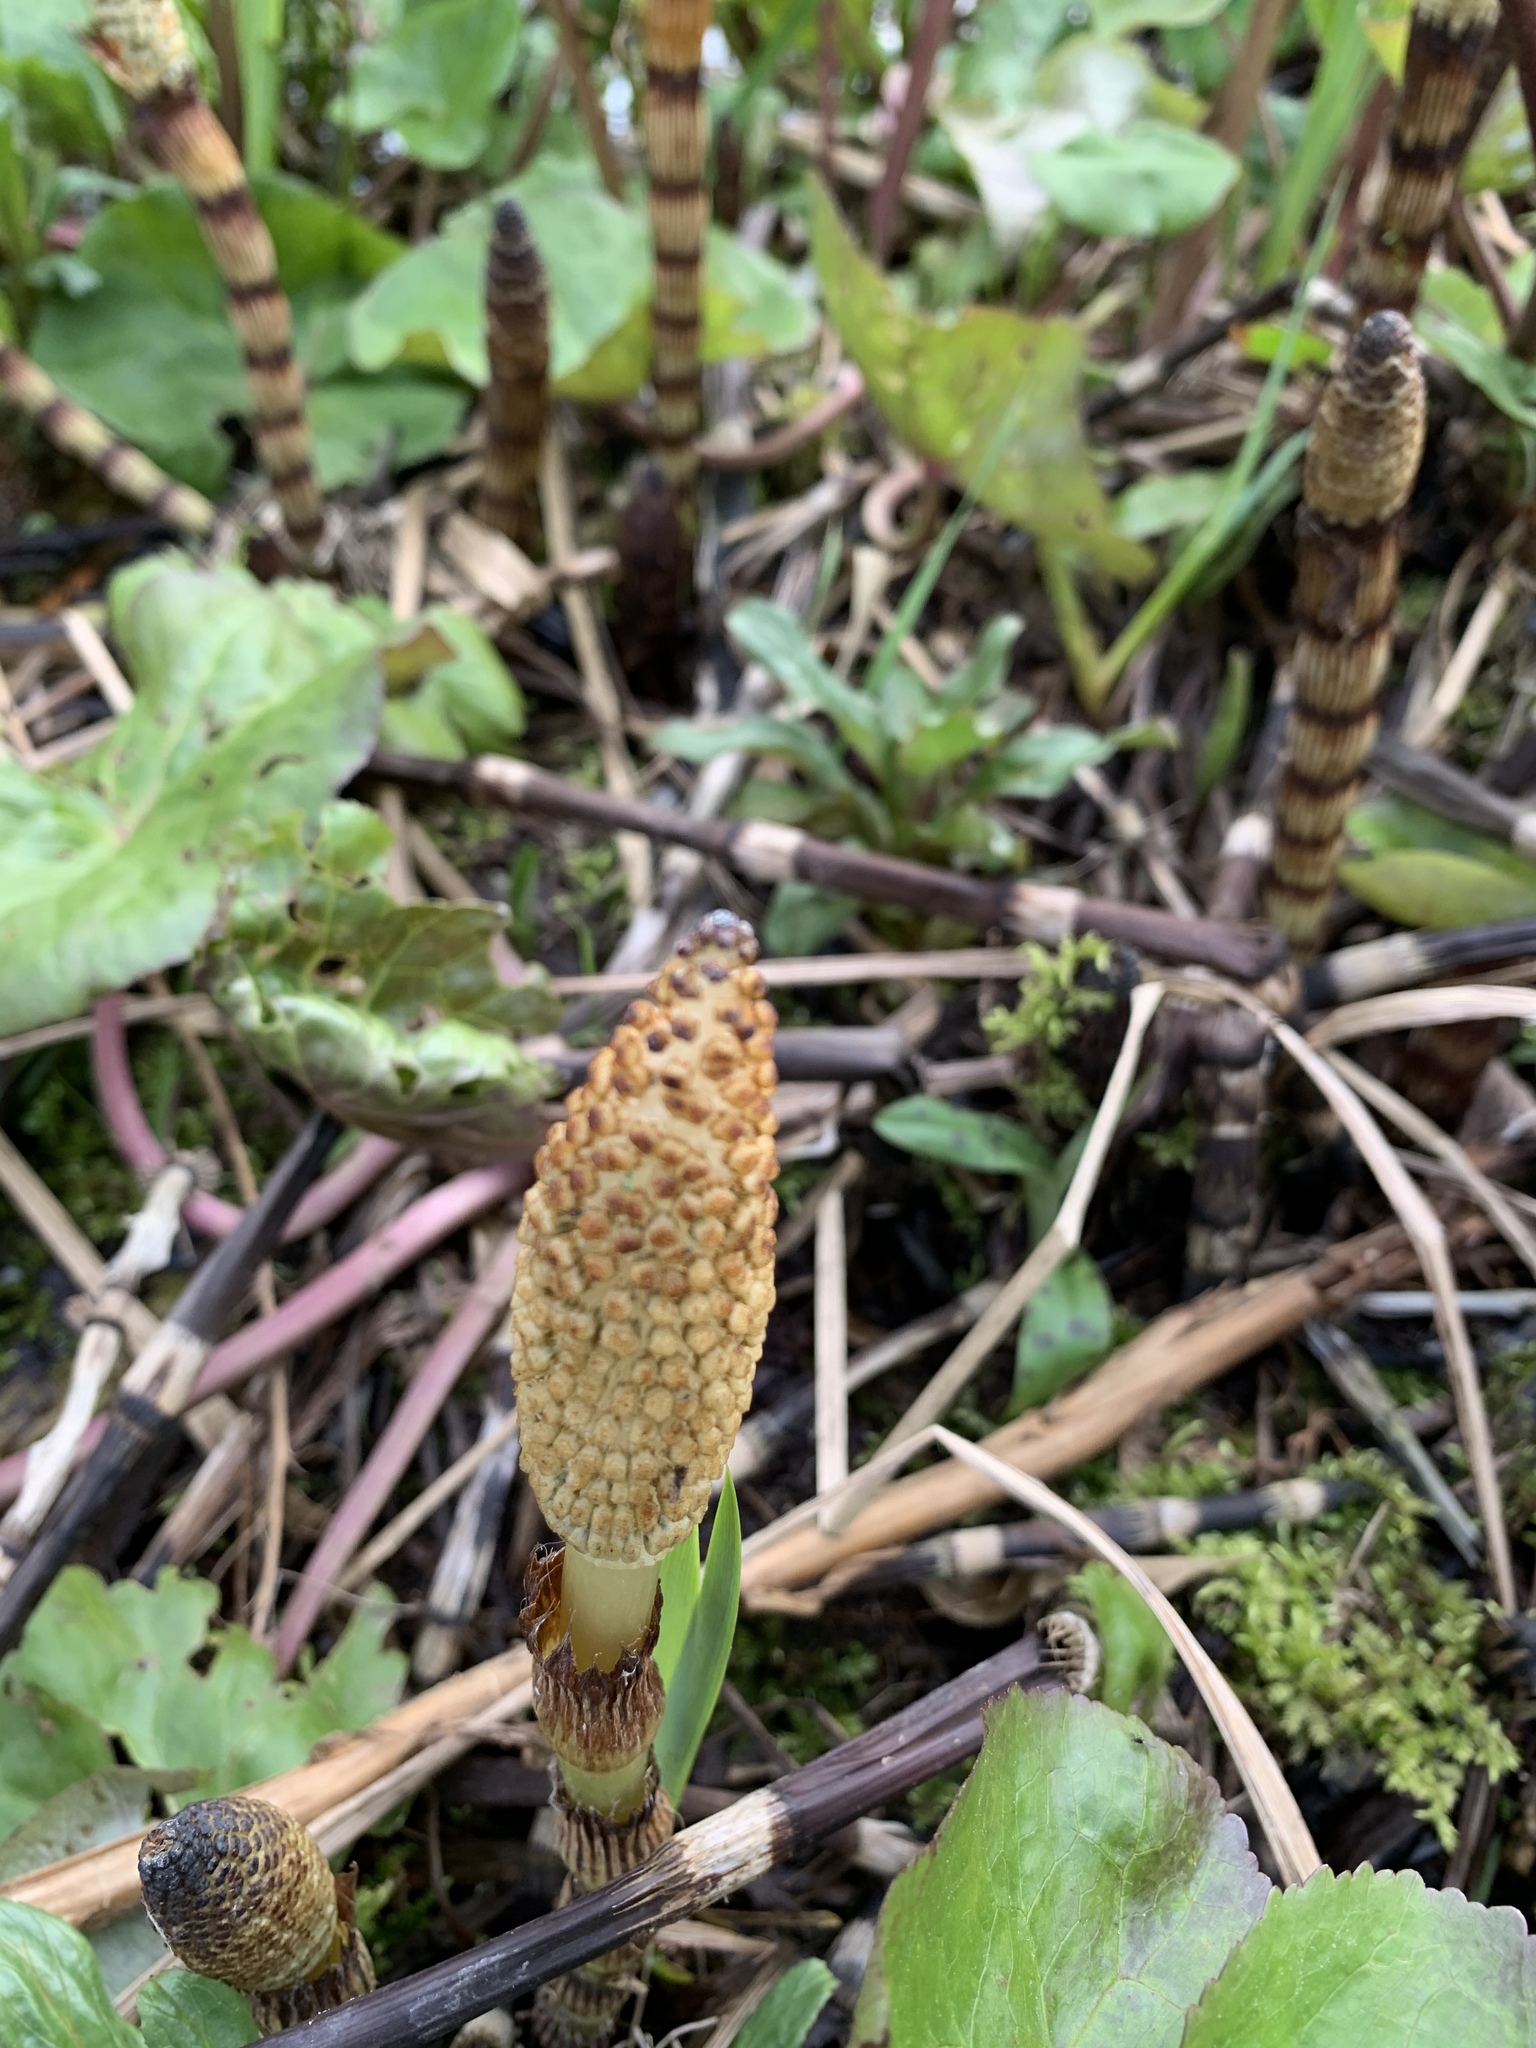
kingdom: Plantae
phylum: Tracheophyta
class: Polypodiopsida
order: Equisetales
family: Equisetaceae
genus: Equisetum
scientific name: Equisetum telmateia
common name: Great horsetail
